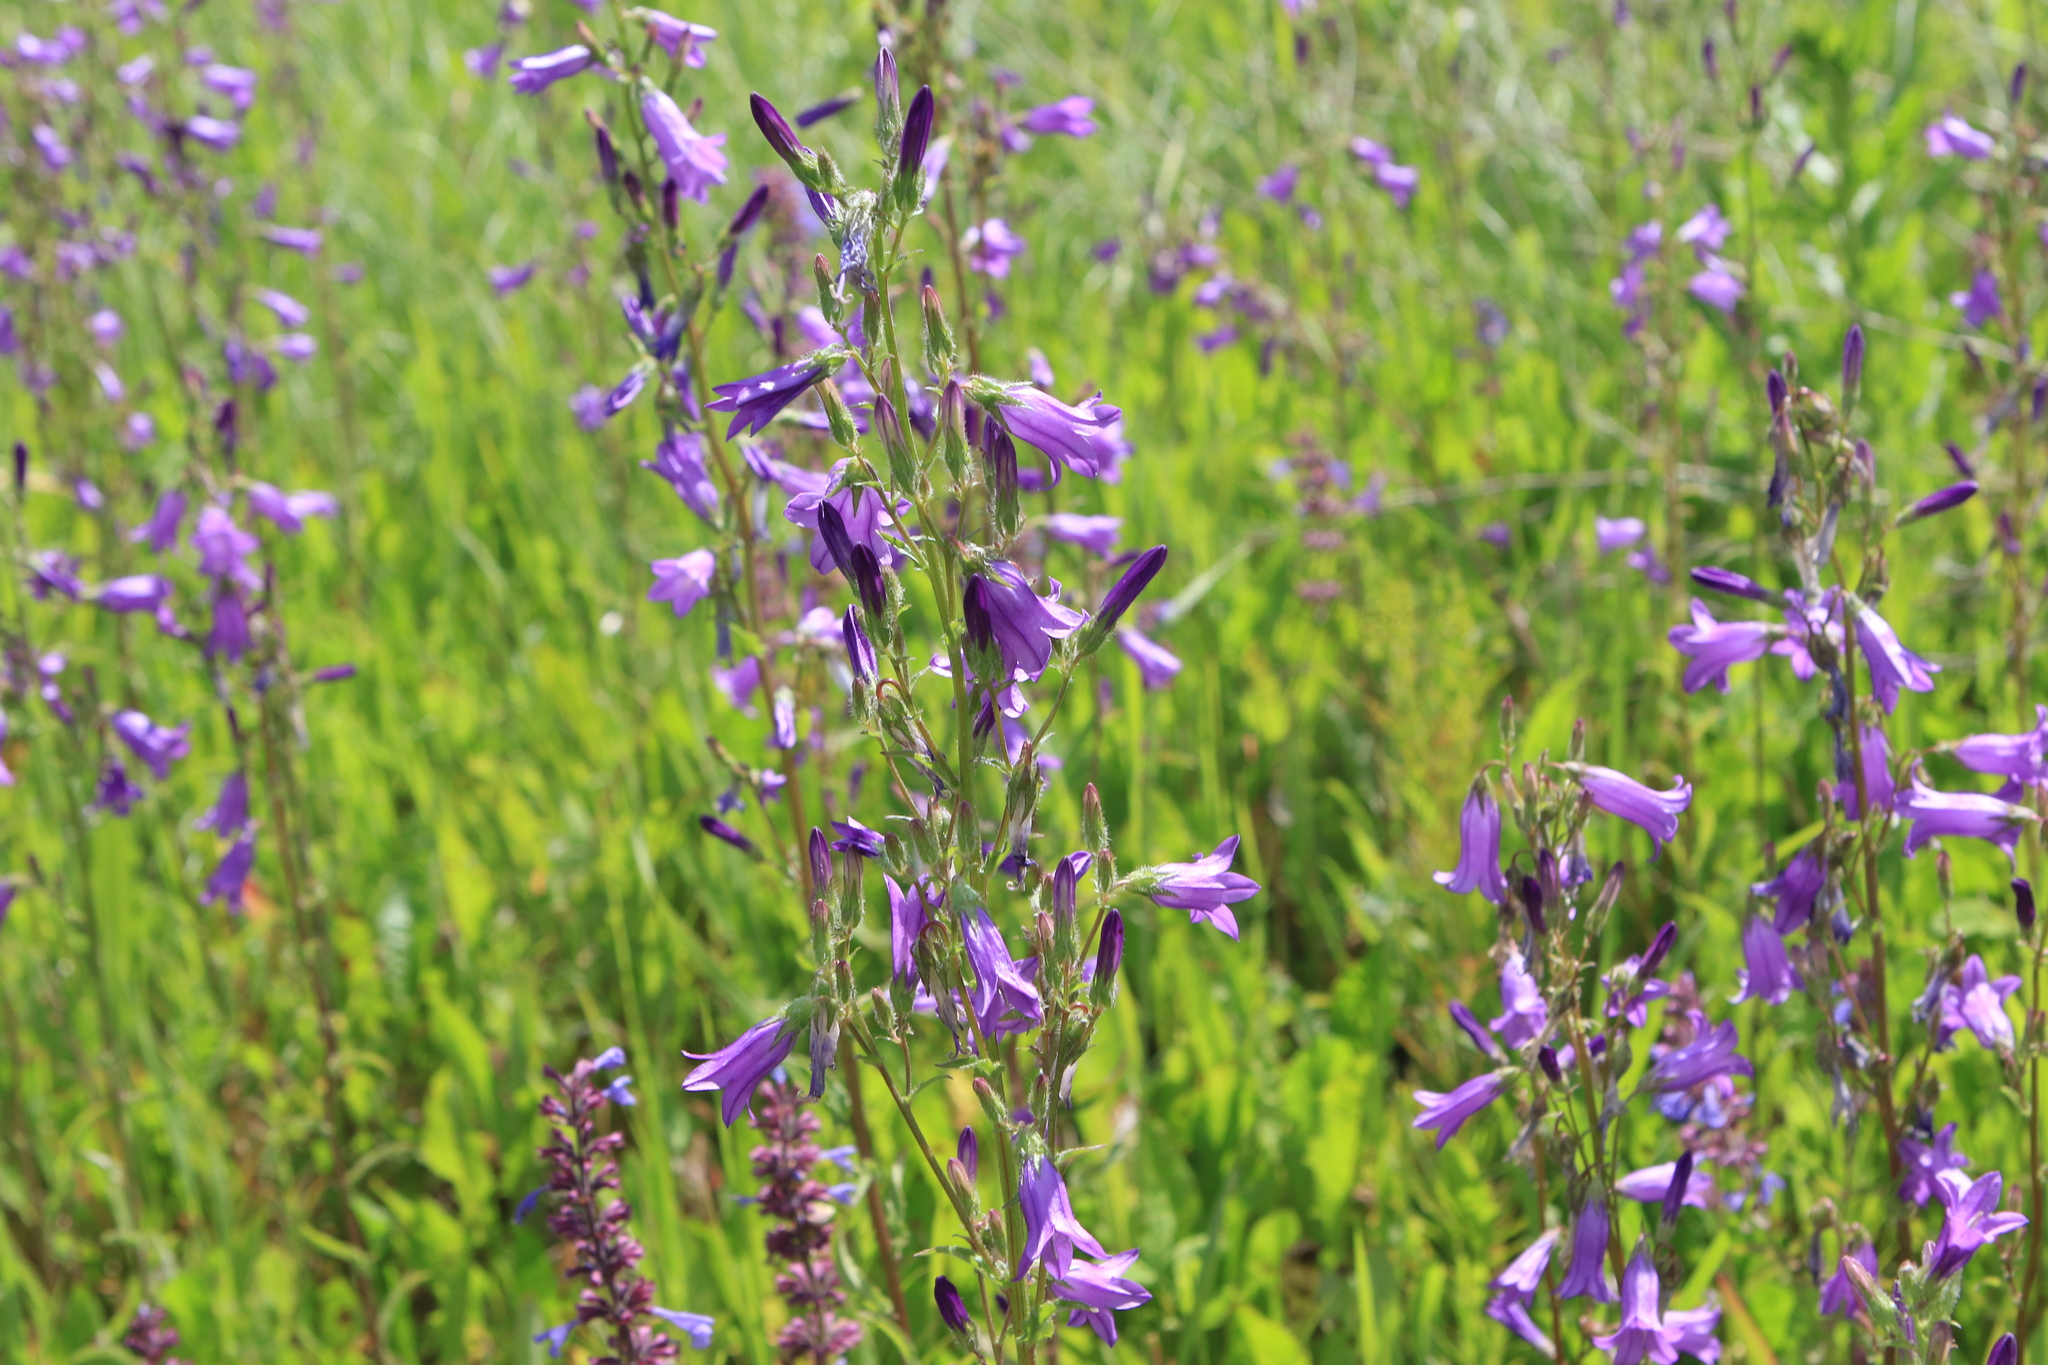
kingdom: Plantae
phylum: Tracheophyta
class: Magnoliopsida
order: Asterales
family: Campanulaceae
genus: Campanula
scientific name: Campanula sibirica
